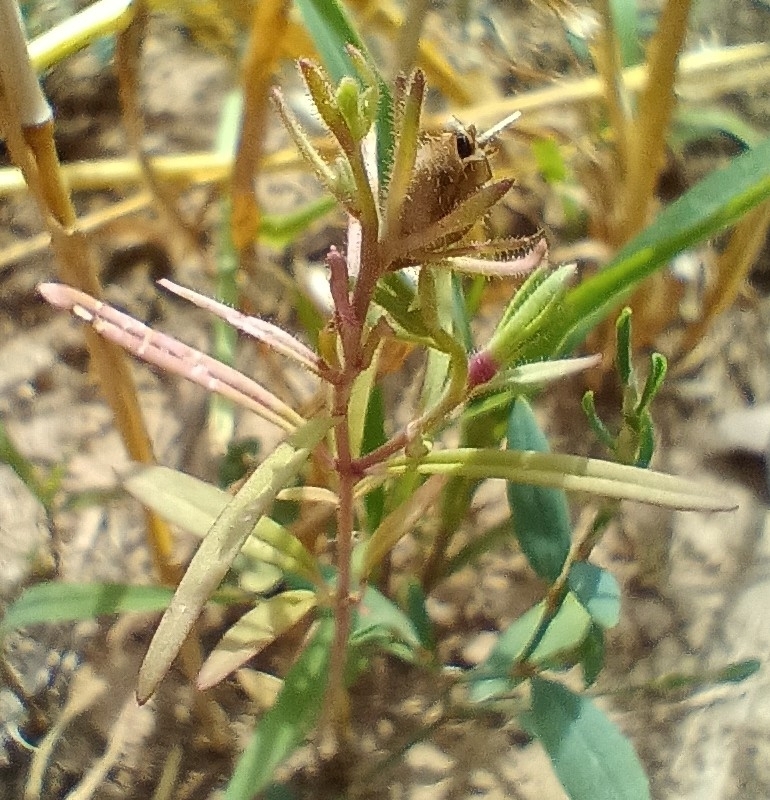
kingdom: Plantae
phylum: Tracheophyta
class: Magnoliopsida
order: Lamiales
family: Plantaginaceae
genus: Chaenorhinum
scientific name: Chaenorhinum minus
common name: Dwarf snapdragon
